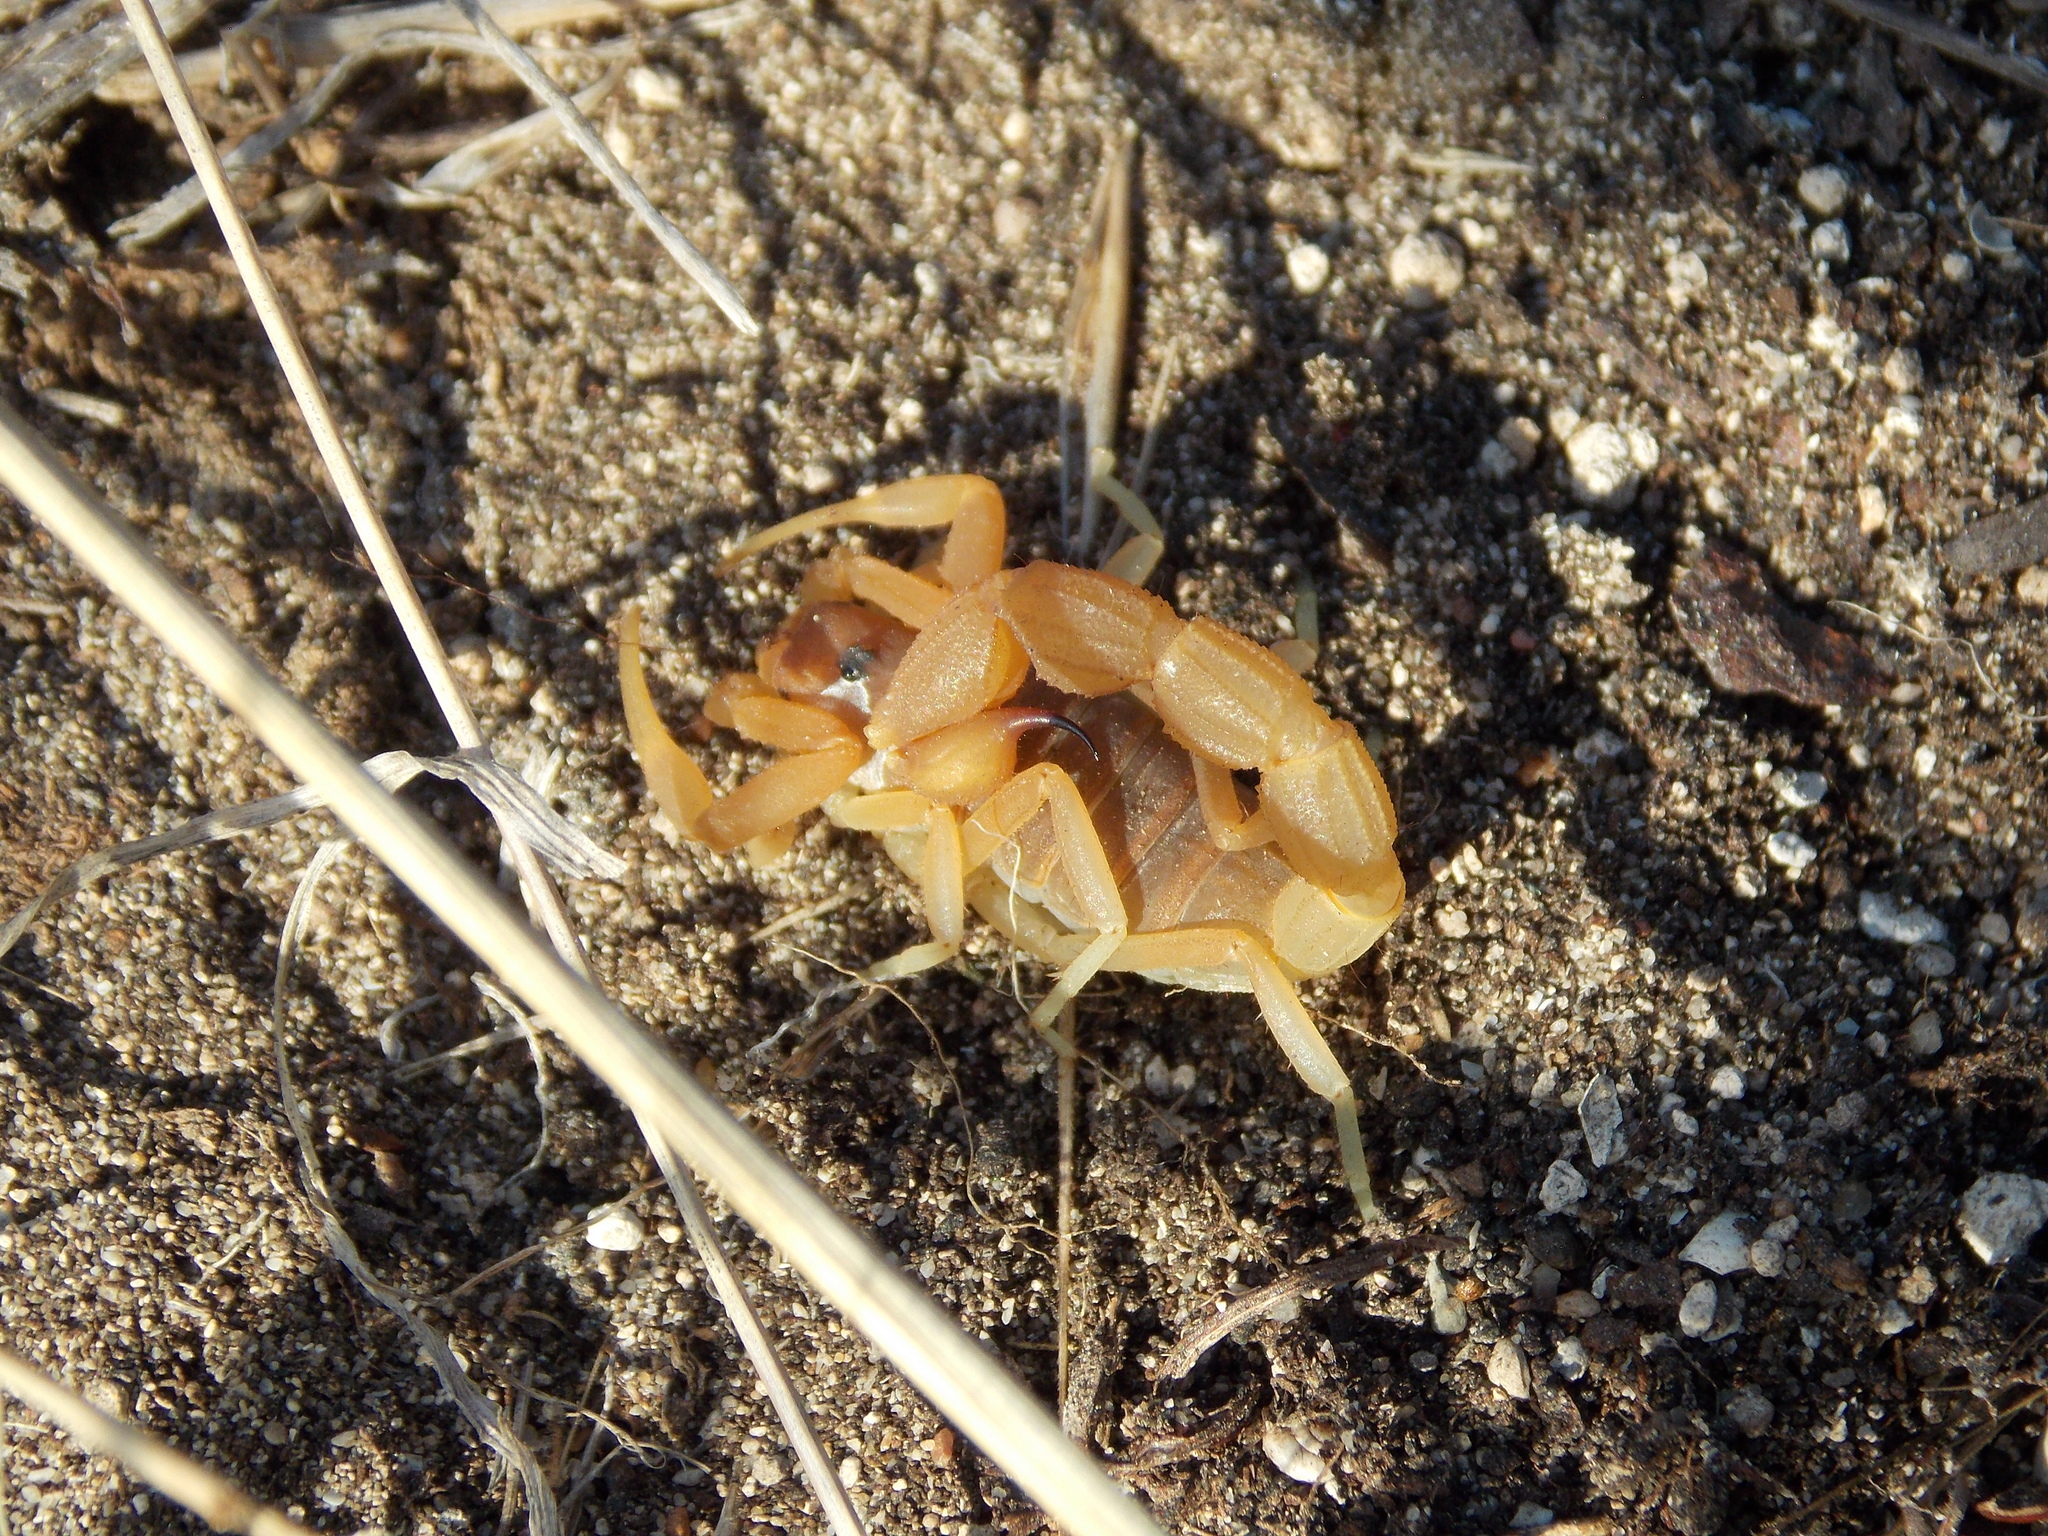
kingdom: Animalia
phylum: Arthropoda
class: Arachnida
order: Scorpiones
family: Buthidae
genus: Parabuthus
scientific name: Parabuthus planicauda
